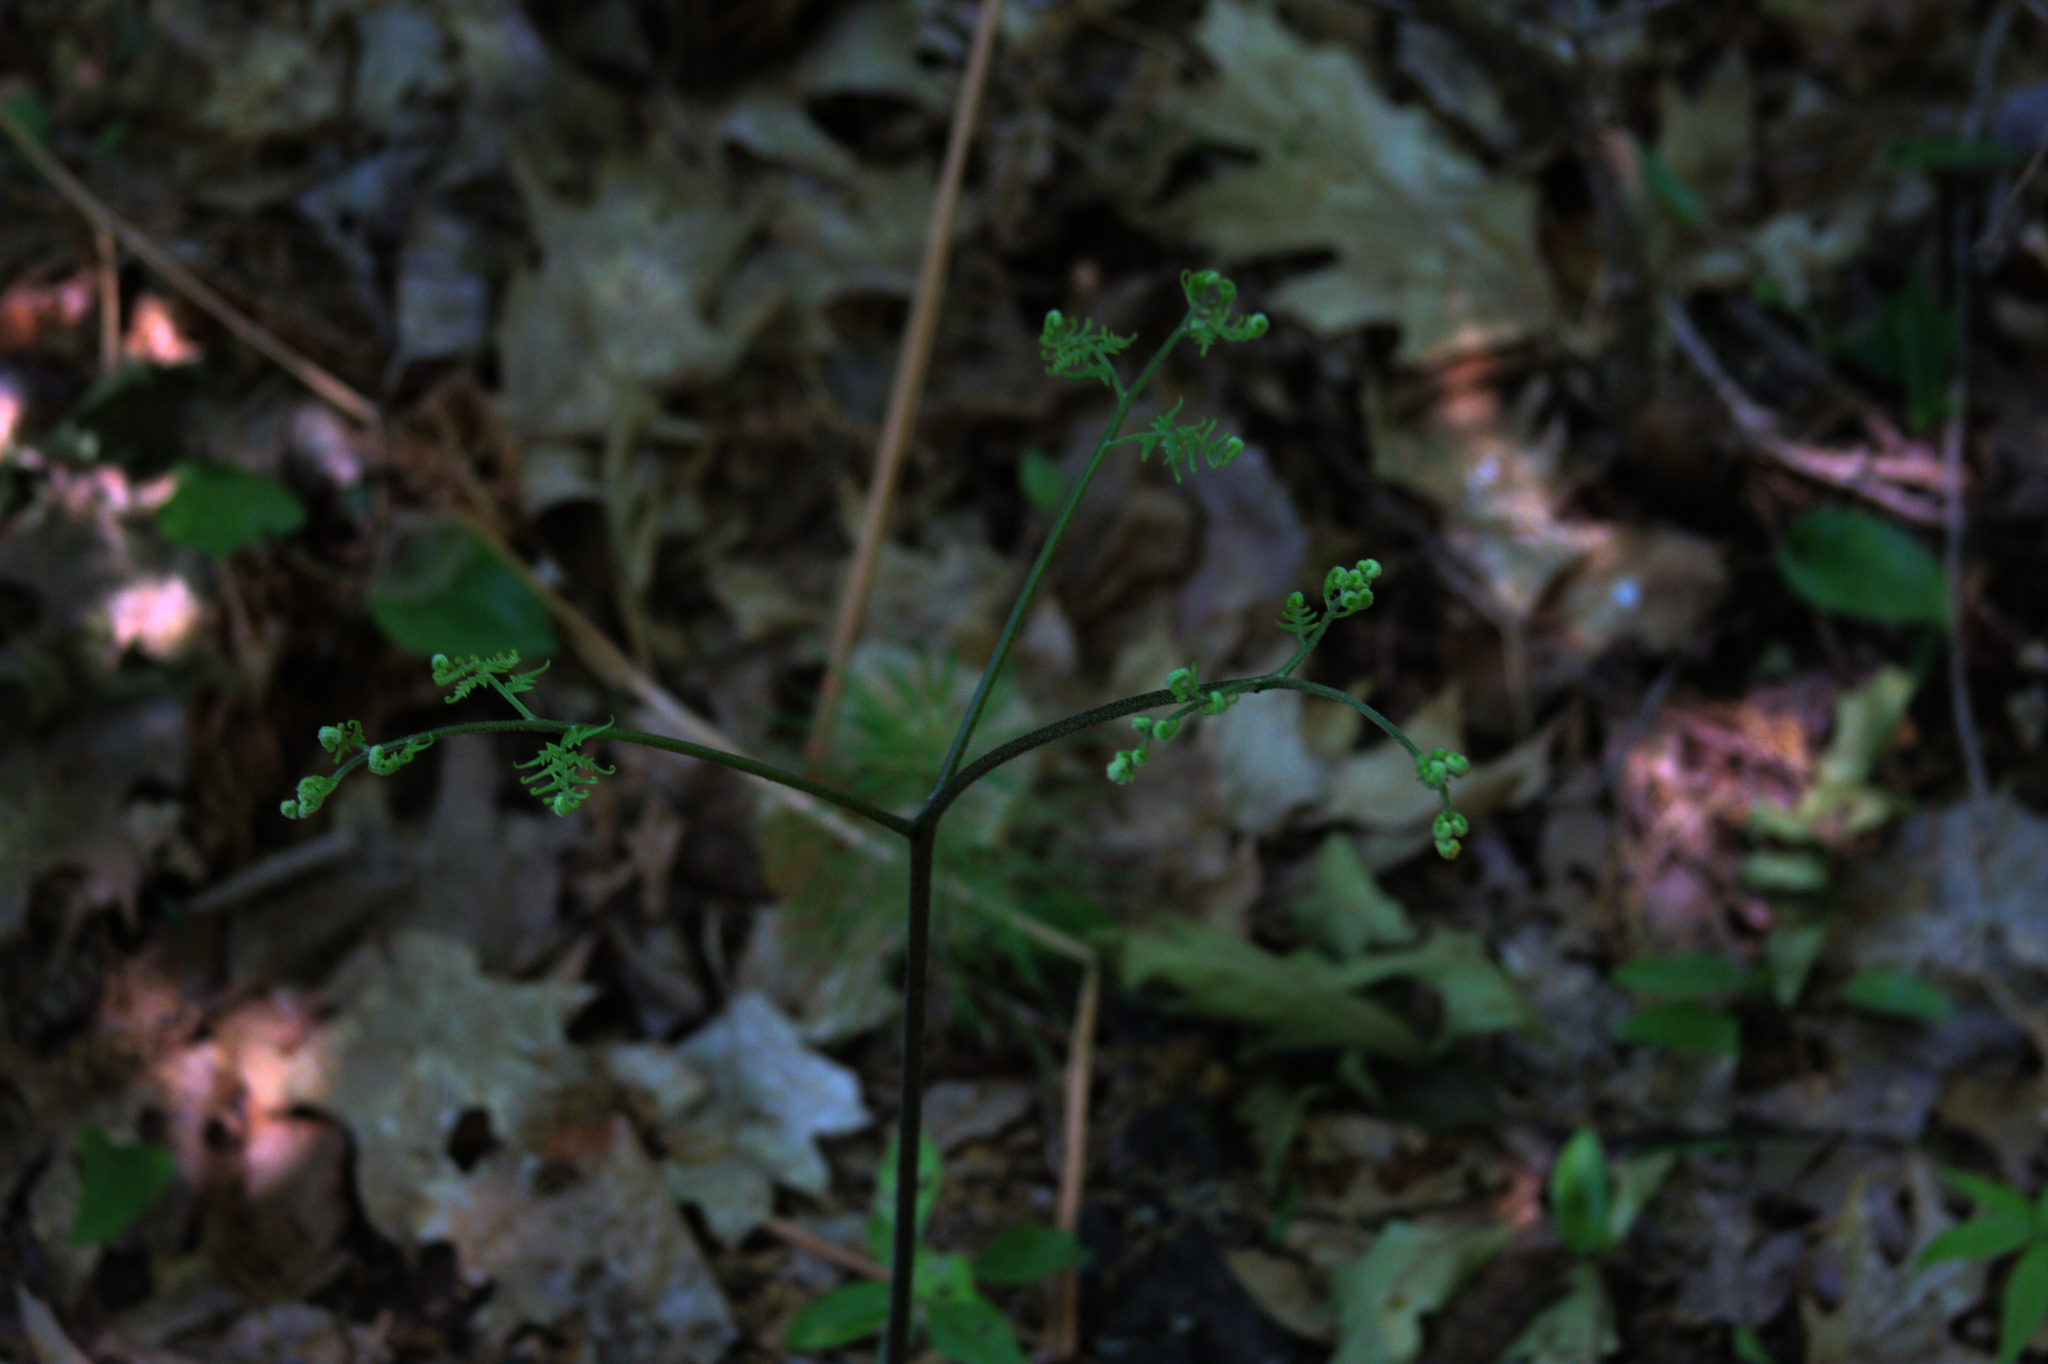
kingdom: Plantae
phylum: Tracheophyta
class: Polypodiopsida
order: Polypodiales
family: Dennstaedtiaceae
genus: Pteridium
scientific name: Pteridium aquilinum
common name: Bracken
